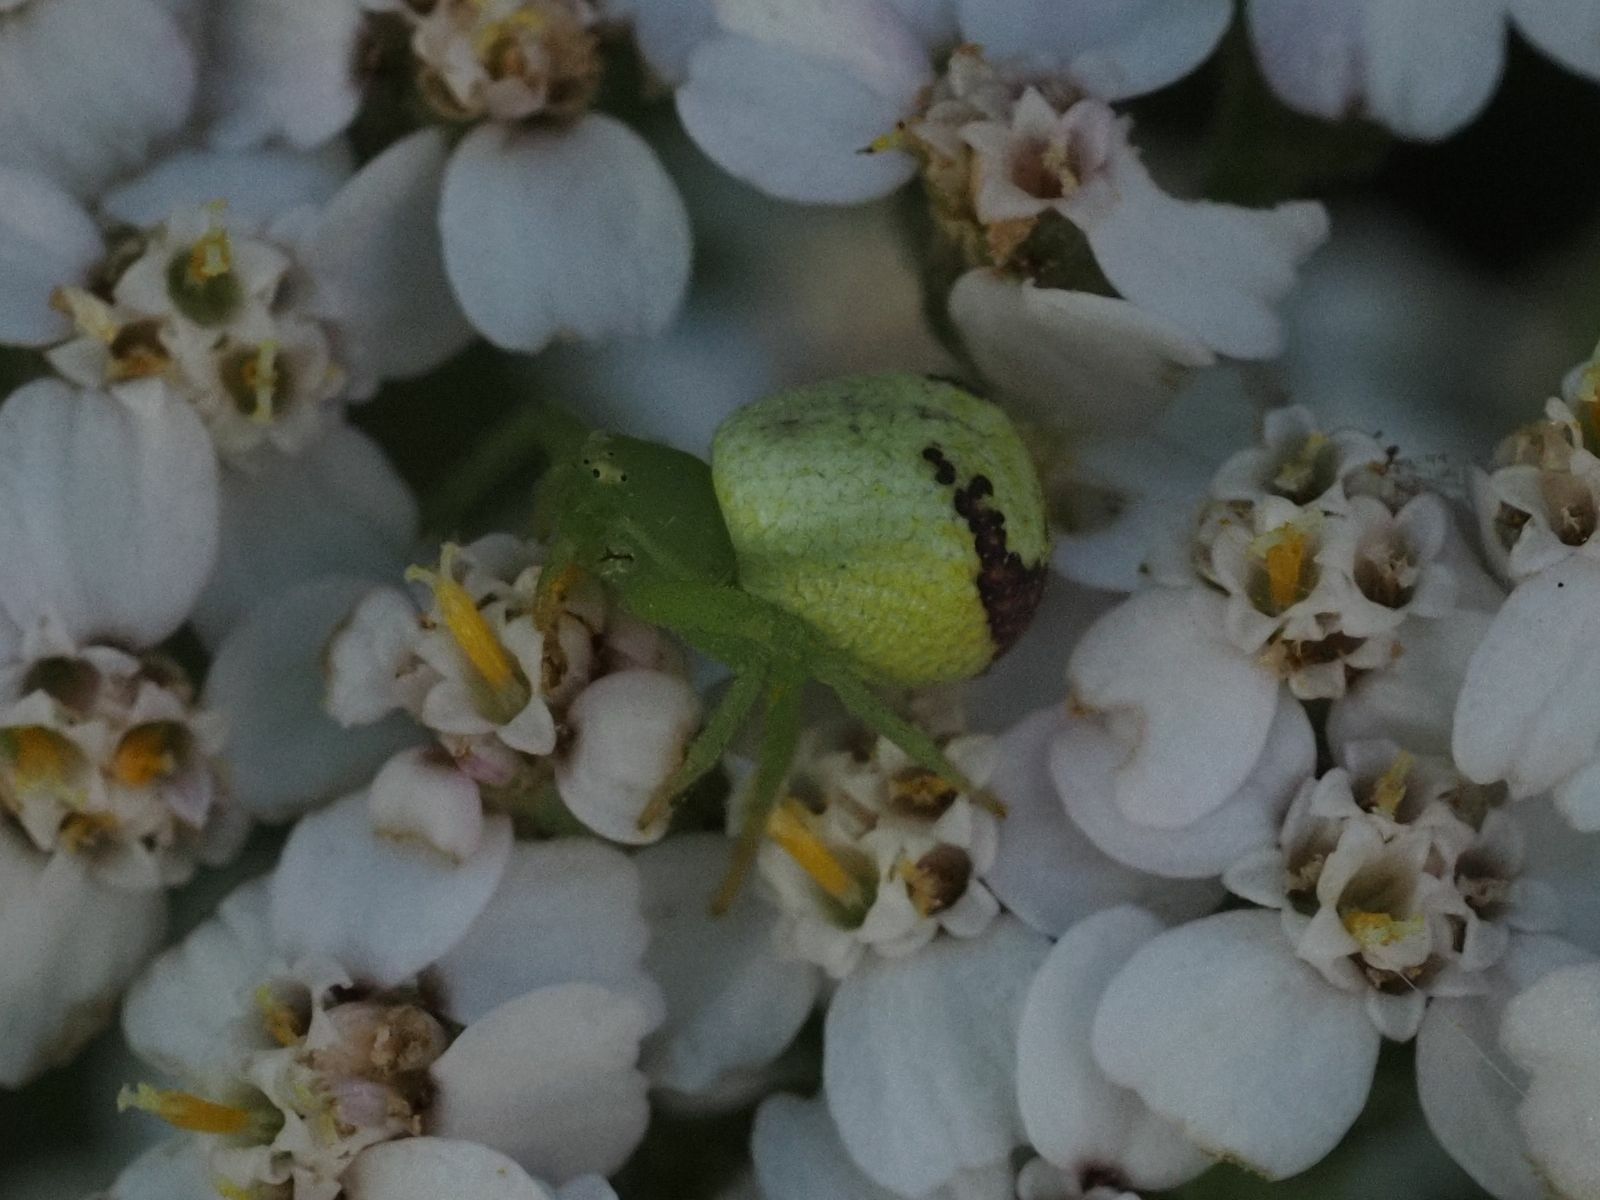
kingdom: Animalia
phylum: Arthropoda
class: Arachnida
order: Araneae
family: Thomisidae
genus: Ebrechtella
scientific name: Ebrechtella tricuspidata
